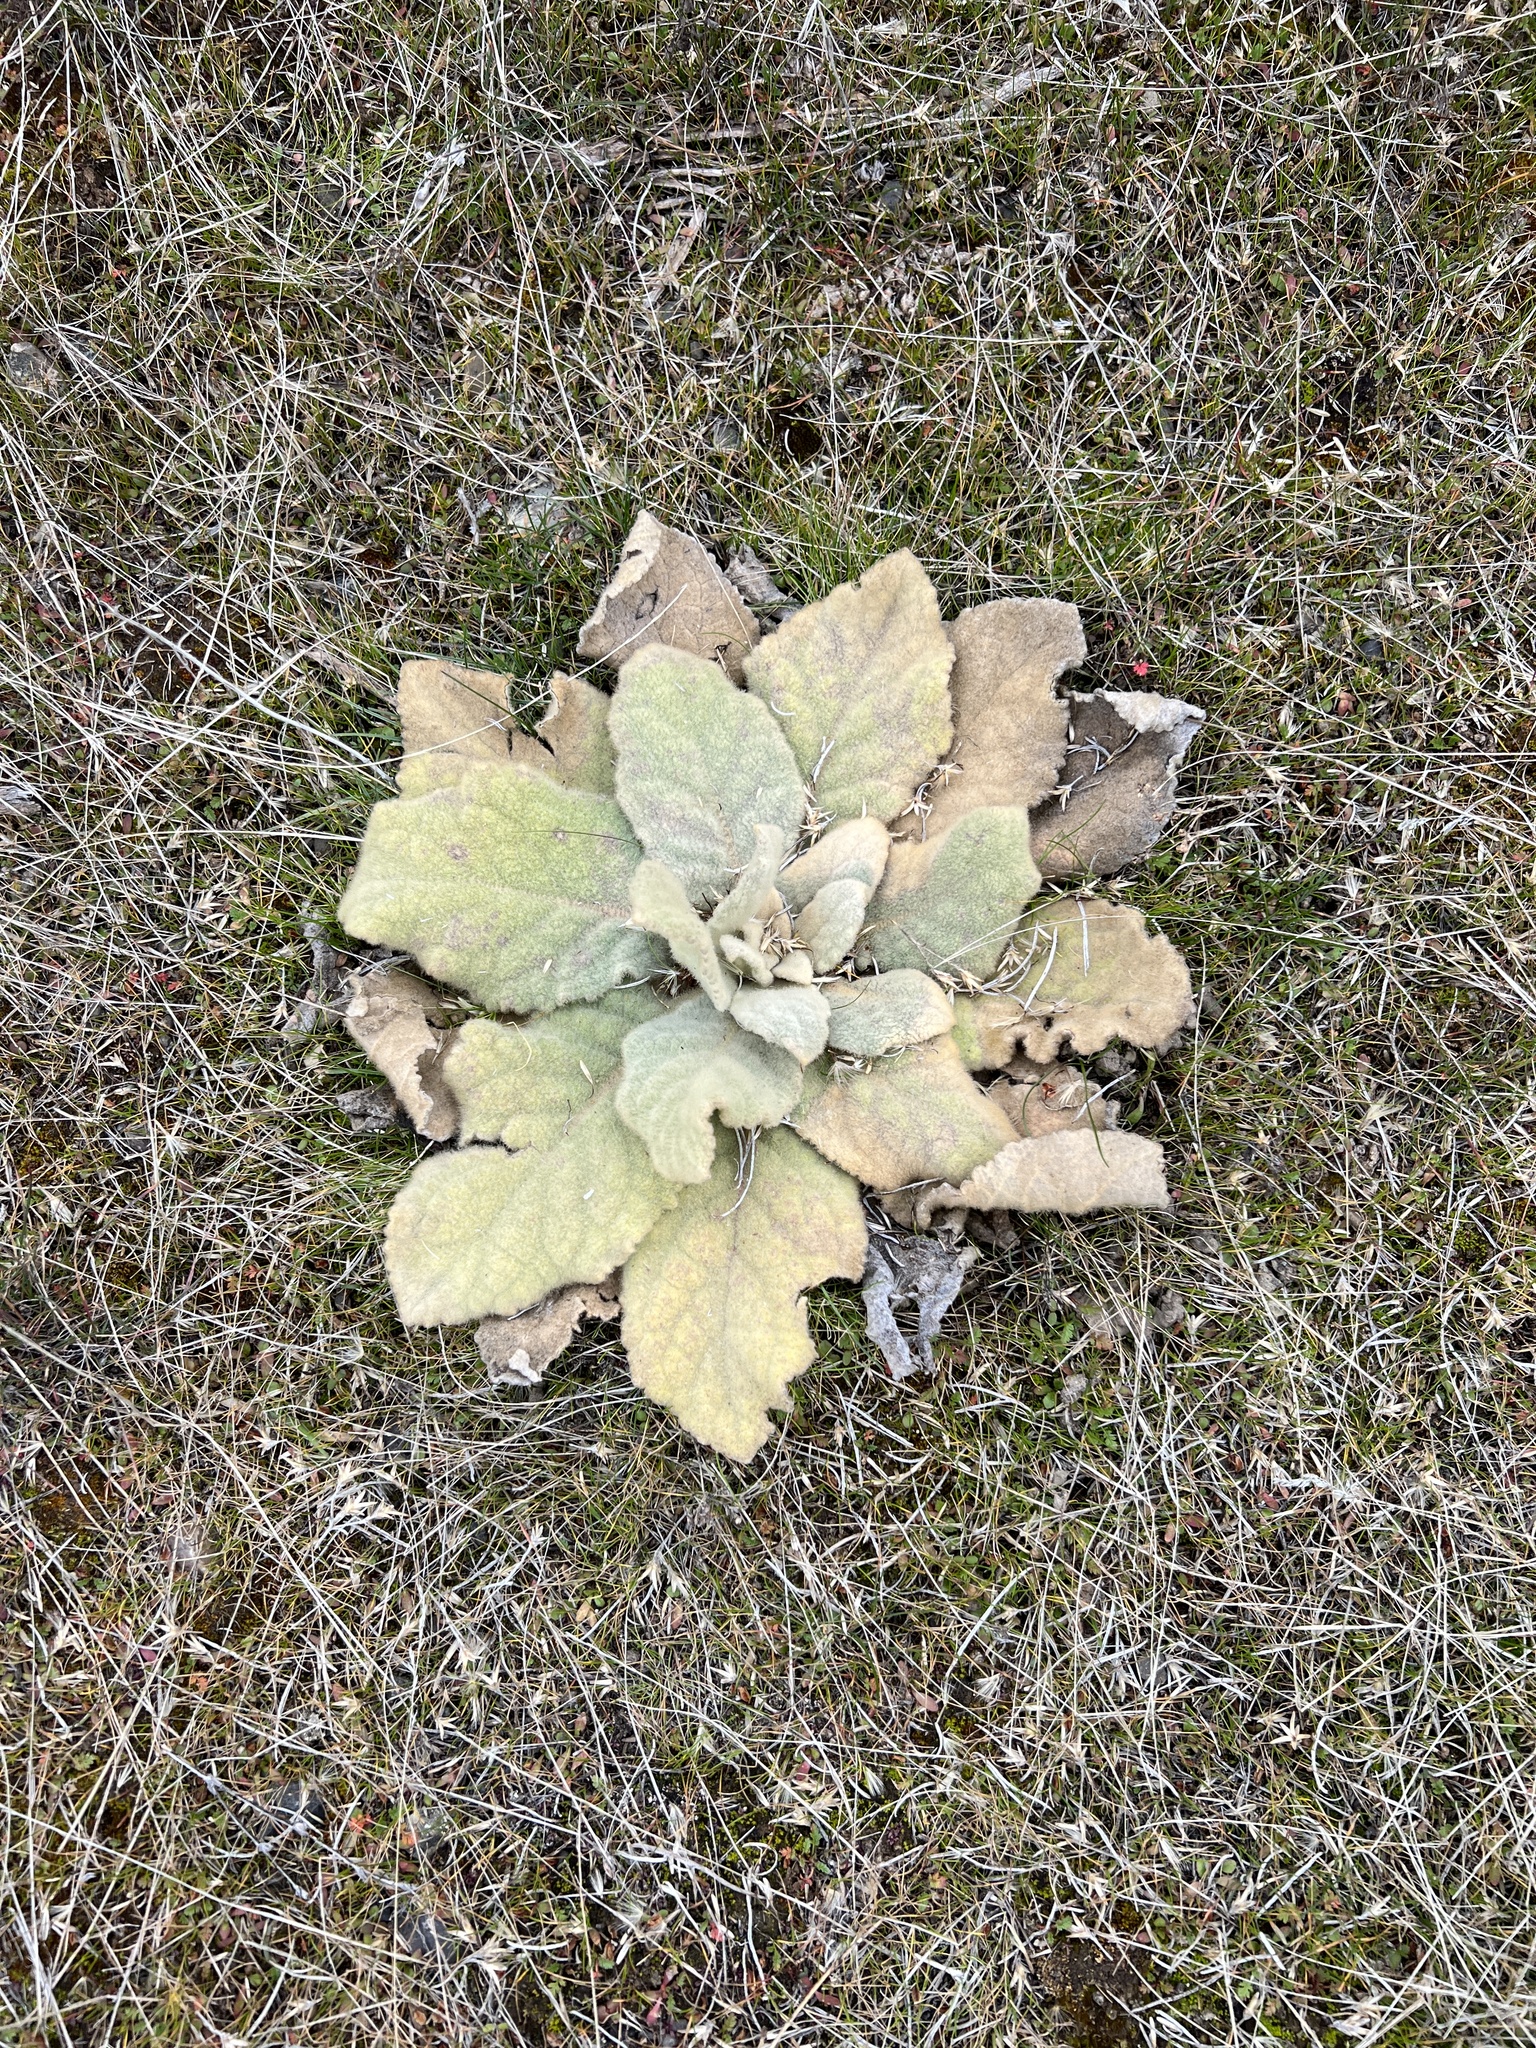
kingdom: Plantae
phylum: Tracheophyta
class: Magnoliopsida
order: Lamiales
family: Scrophulariaceae
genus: Verbascum
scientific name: Verbascum thapsus
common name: Common mullein
